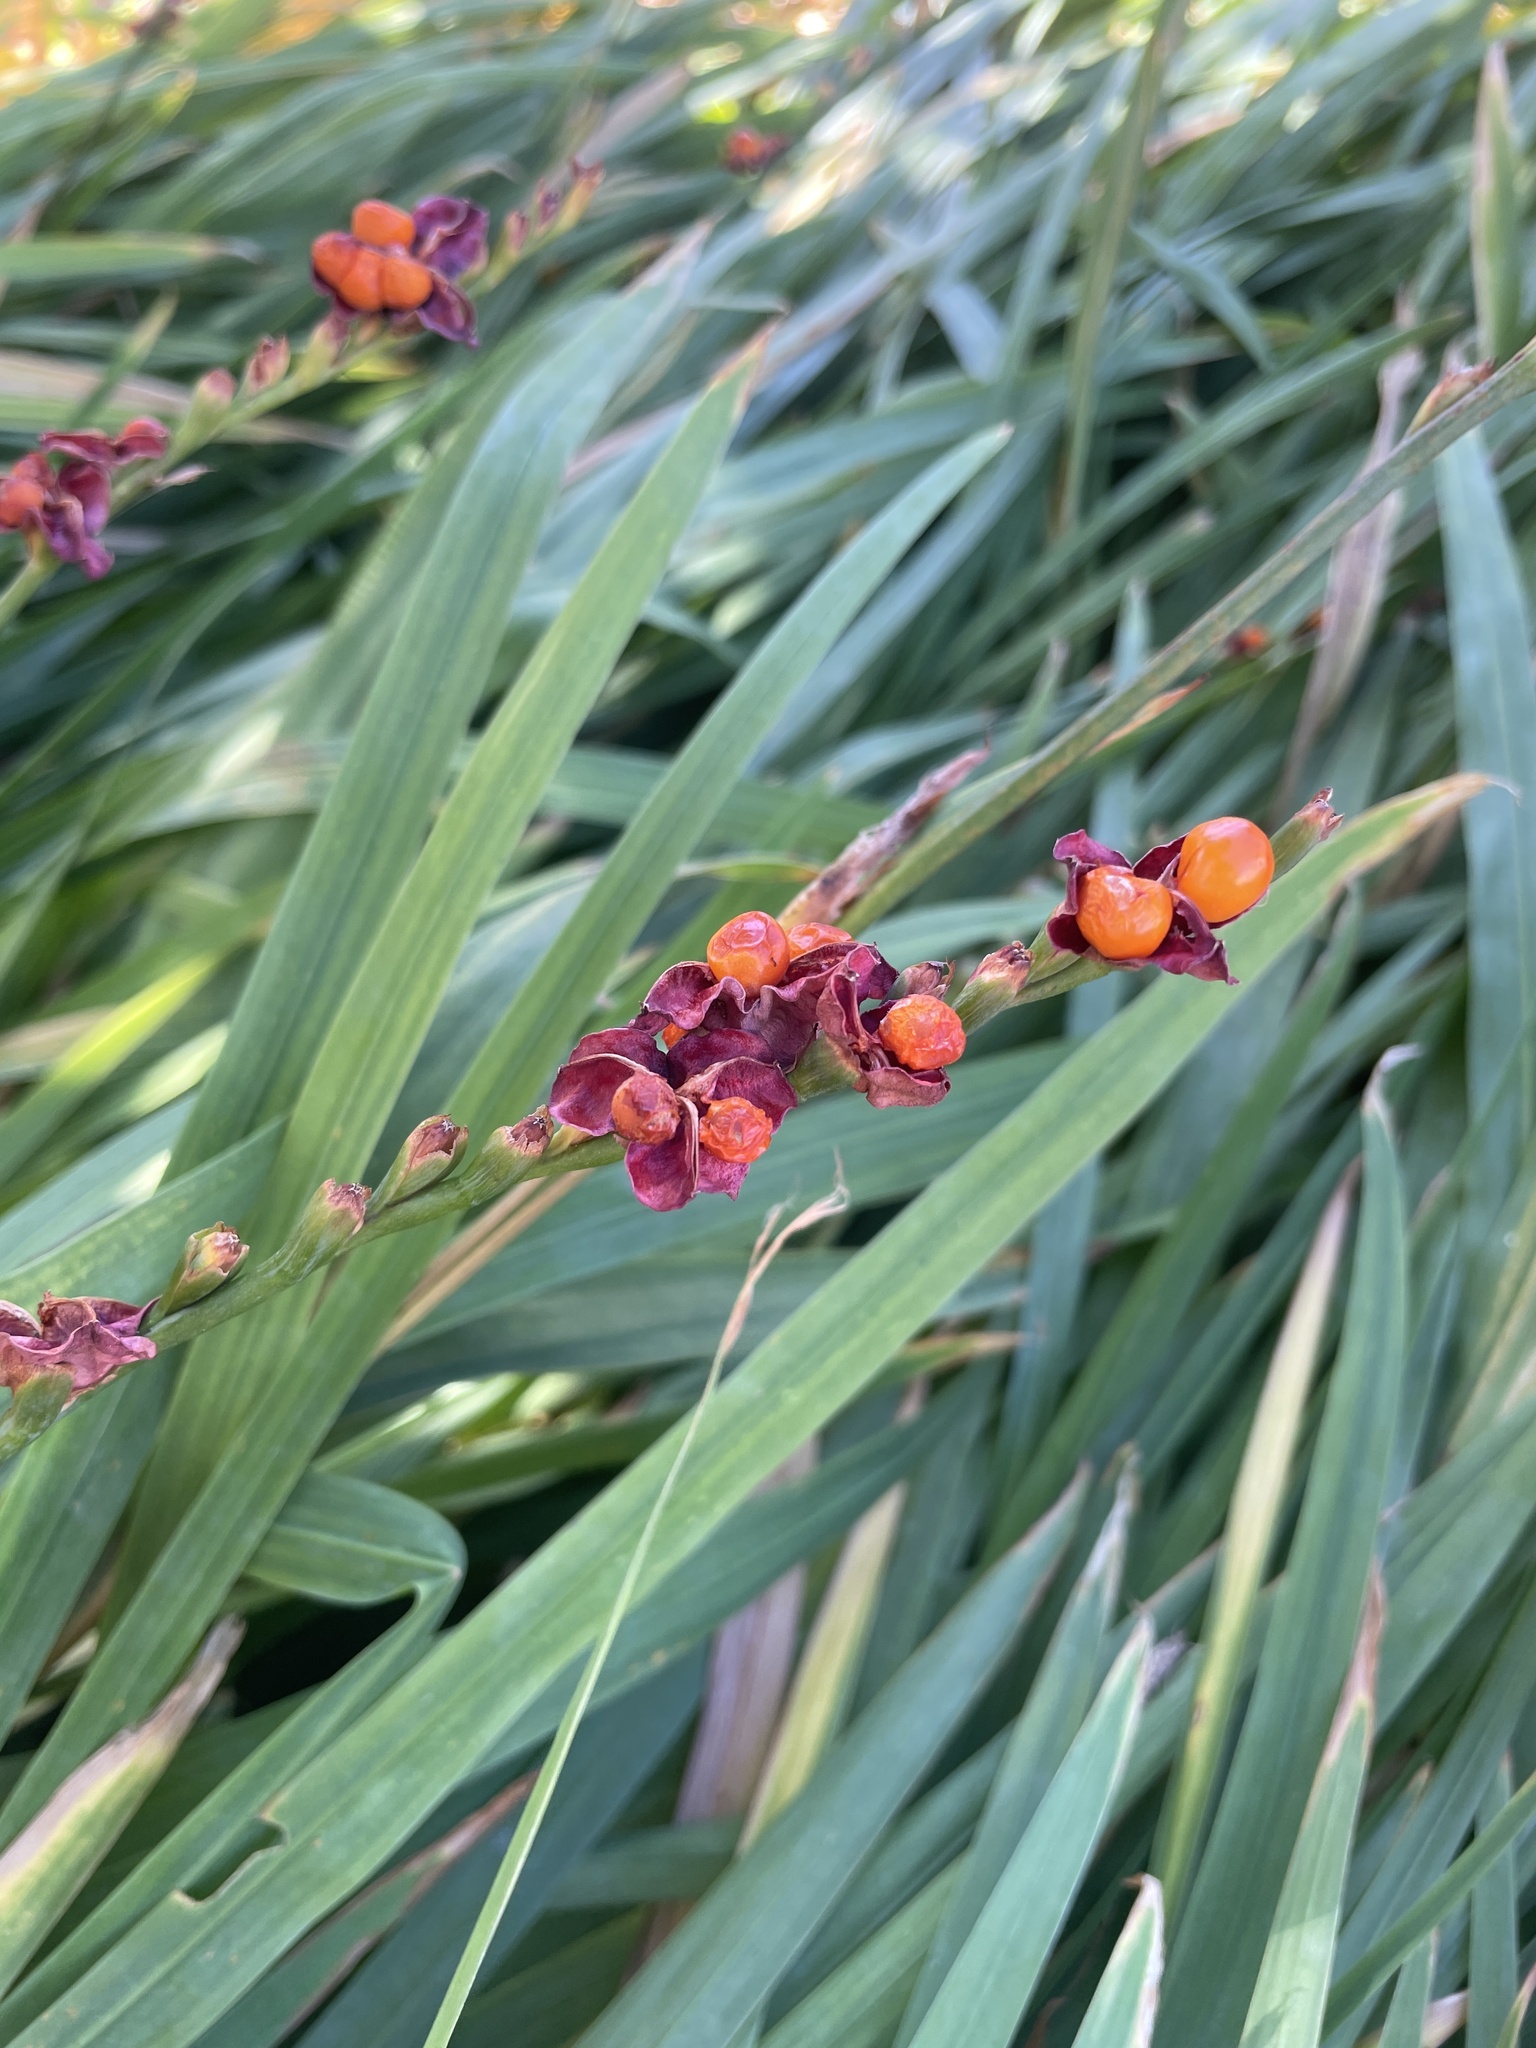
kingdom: Plantae
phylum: Tracheophyta
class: Liliopsida
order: Asparagales
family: Iridaceae
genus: Chasmanthe
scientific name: Chasmanthe aethiopica
